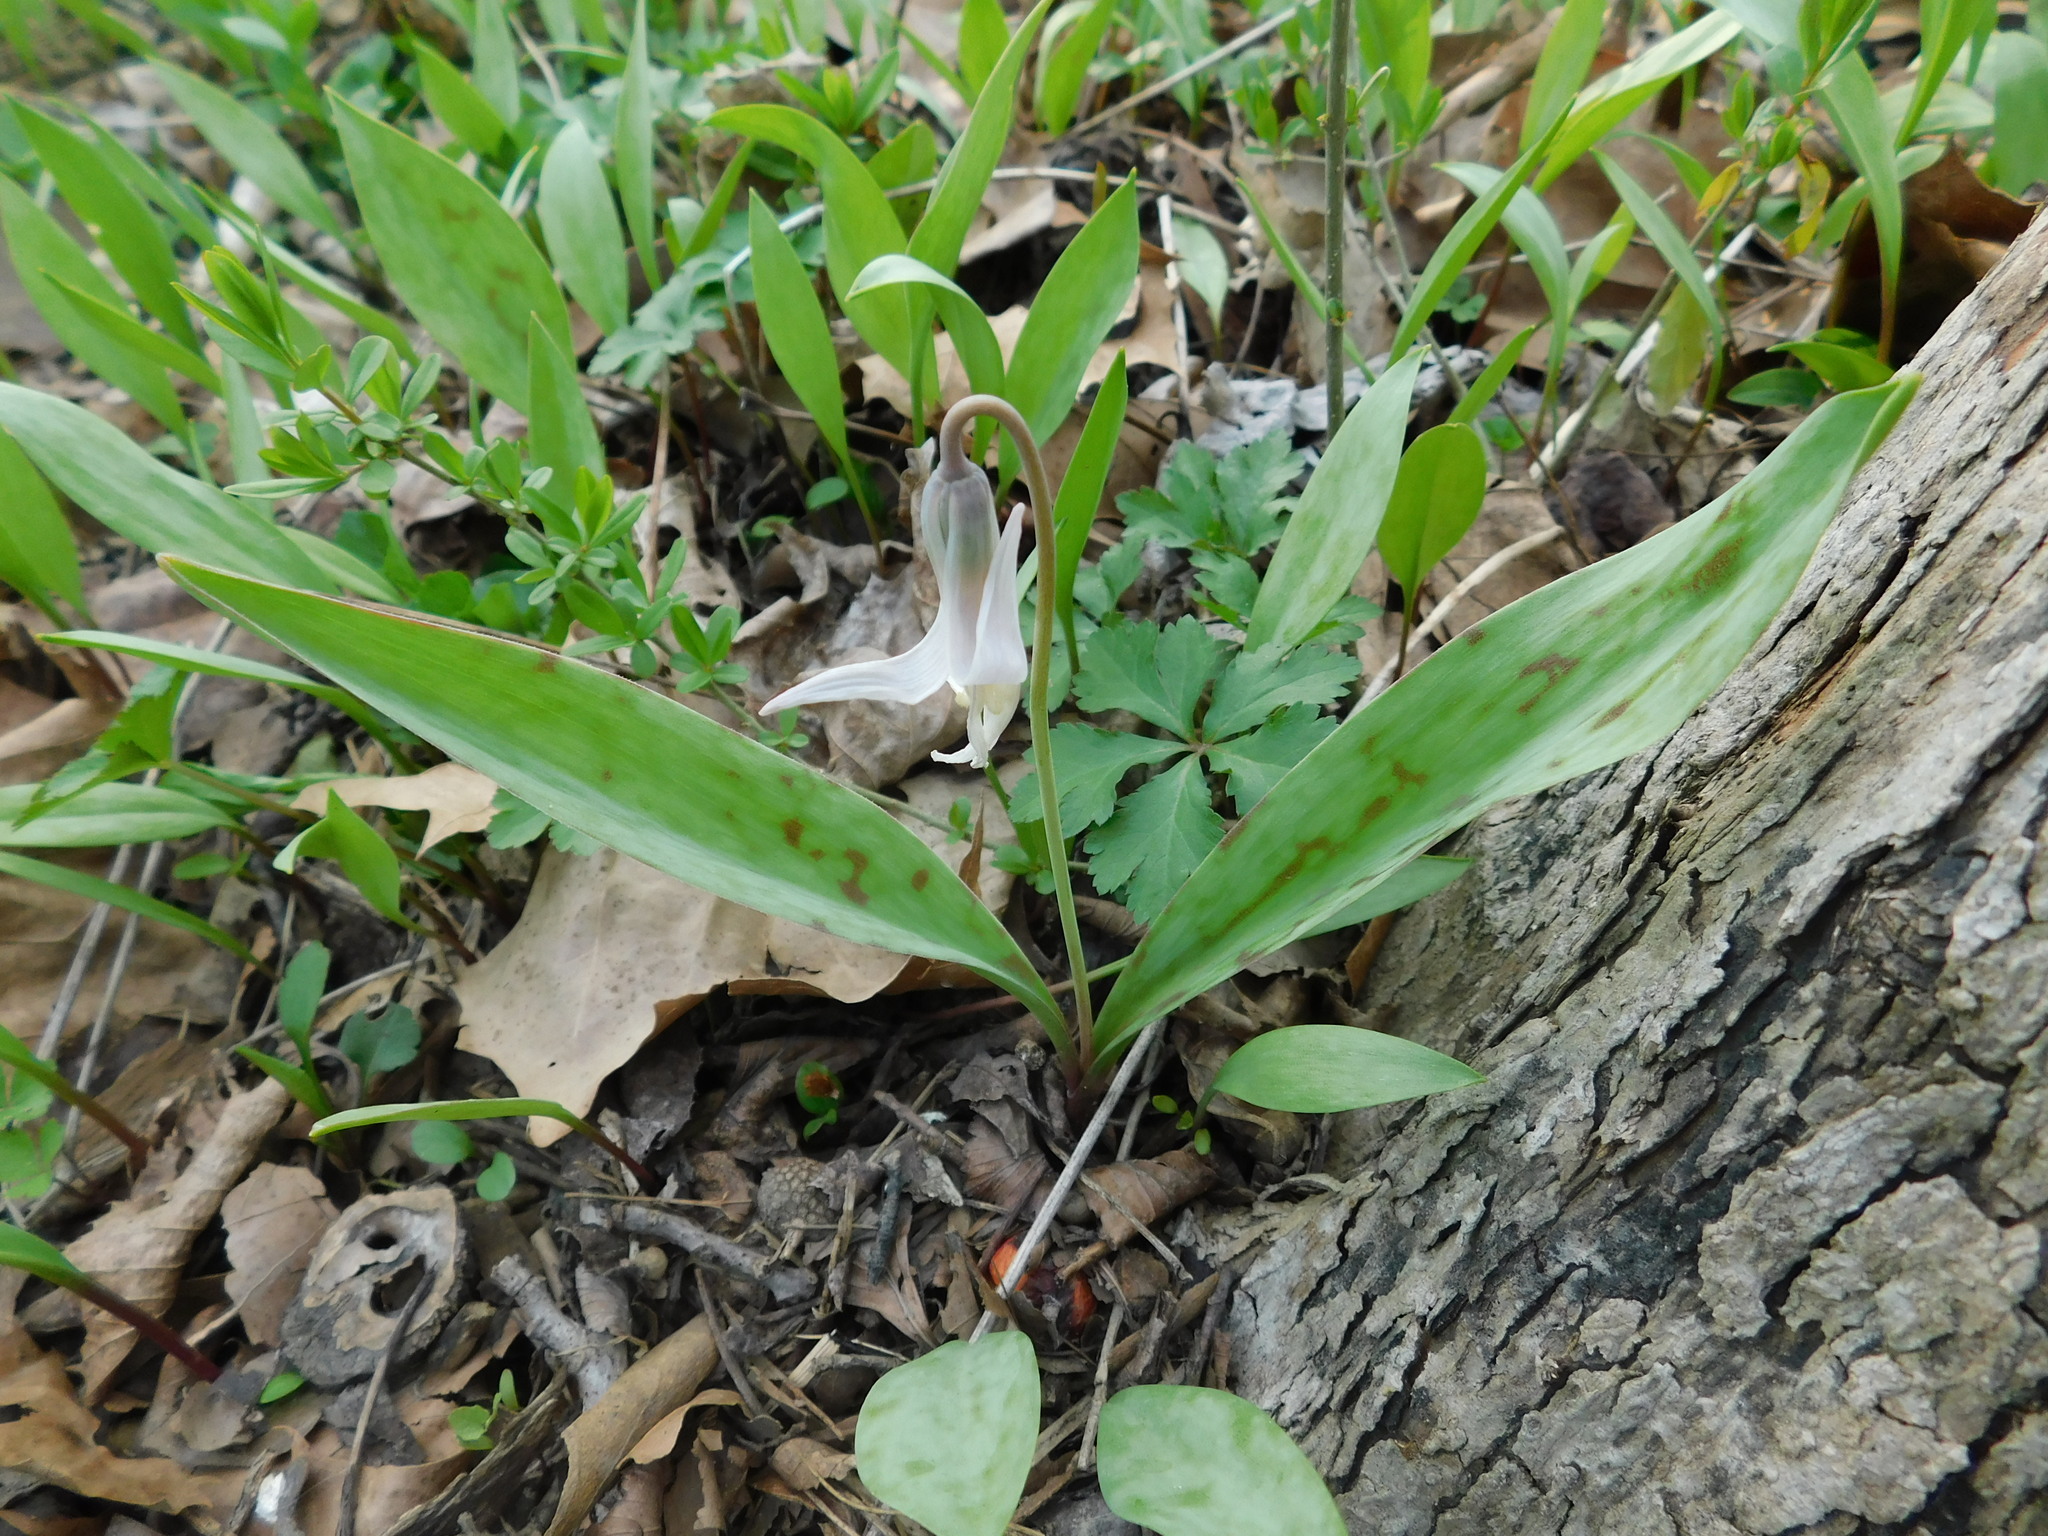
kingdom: Plantae
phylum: Tracheophyta
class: Liliopsida
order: Liliales
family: Liliaceae
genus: Erythronium
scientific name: Erythronium albidum
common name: White trout-lily
